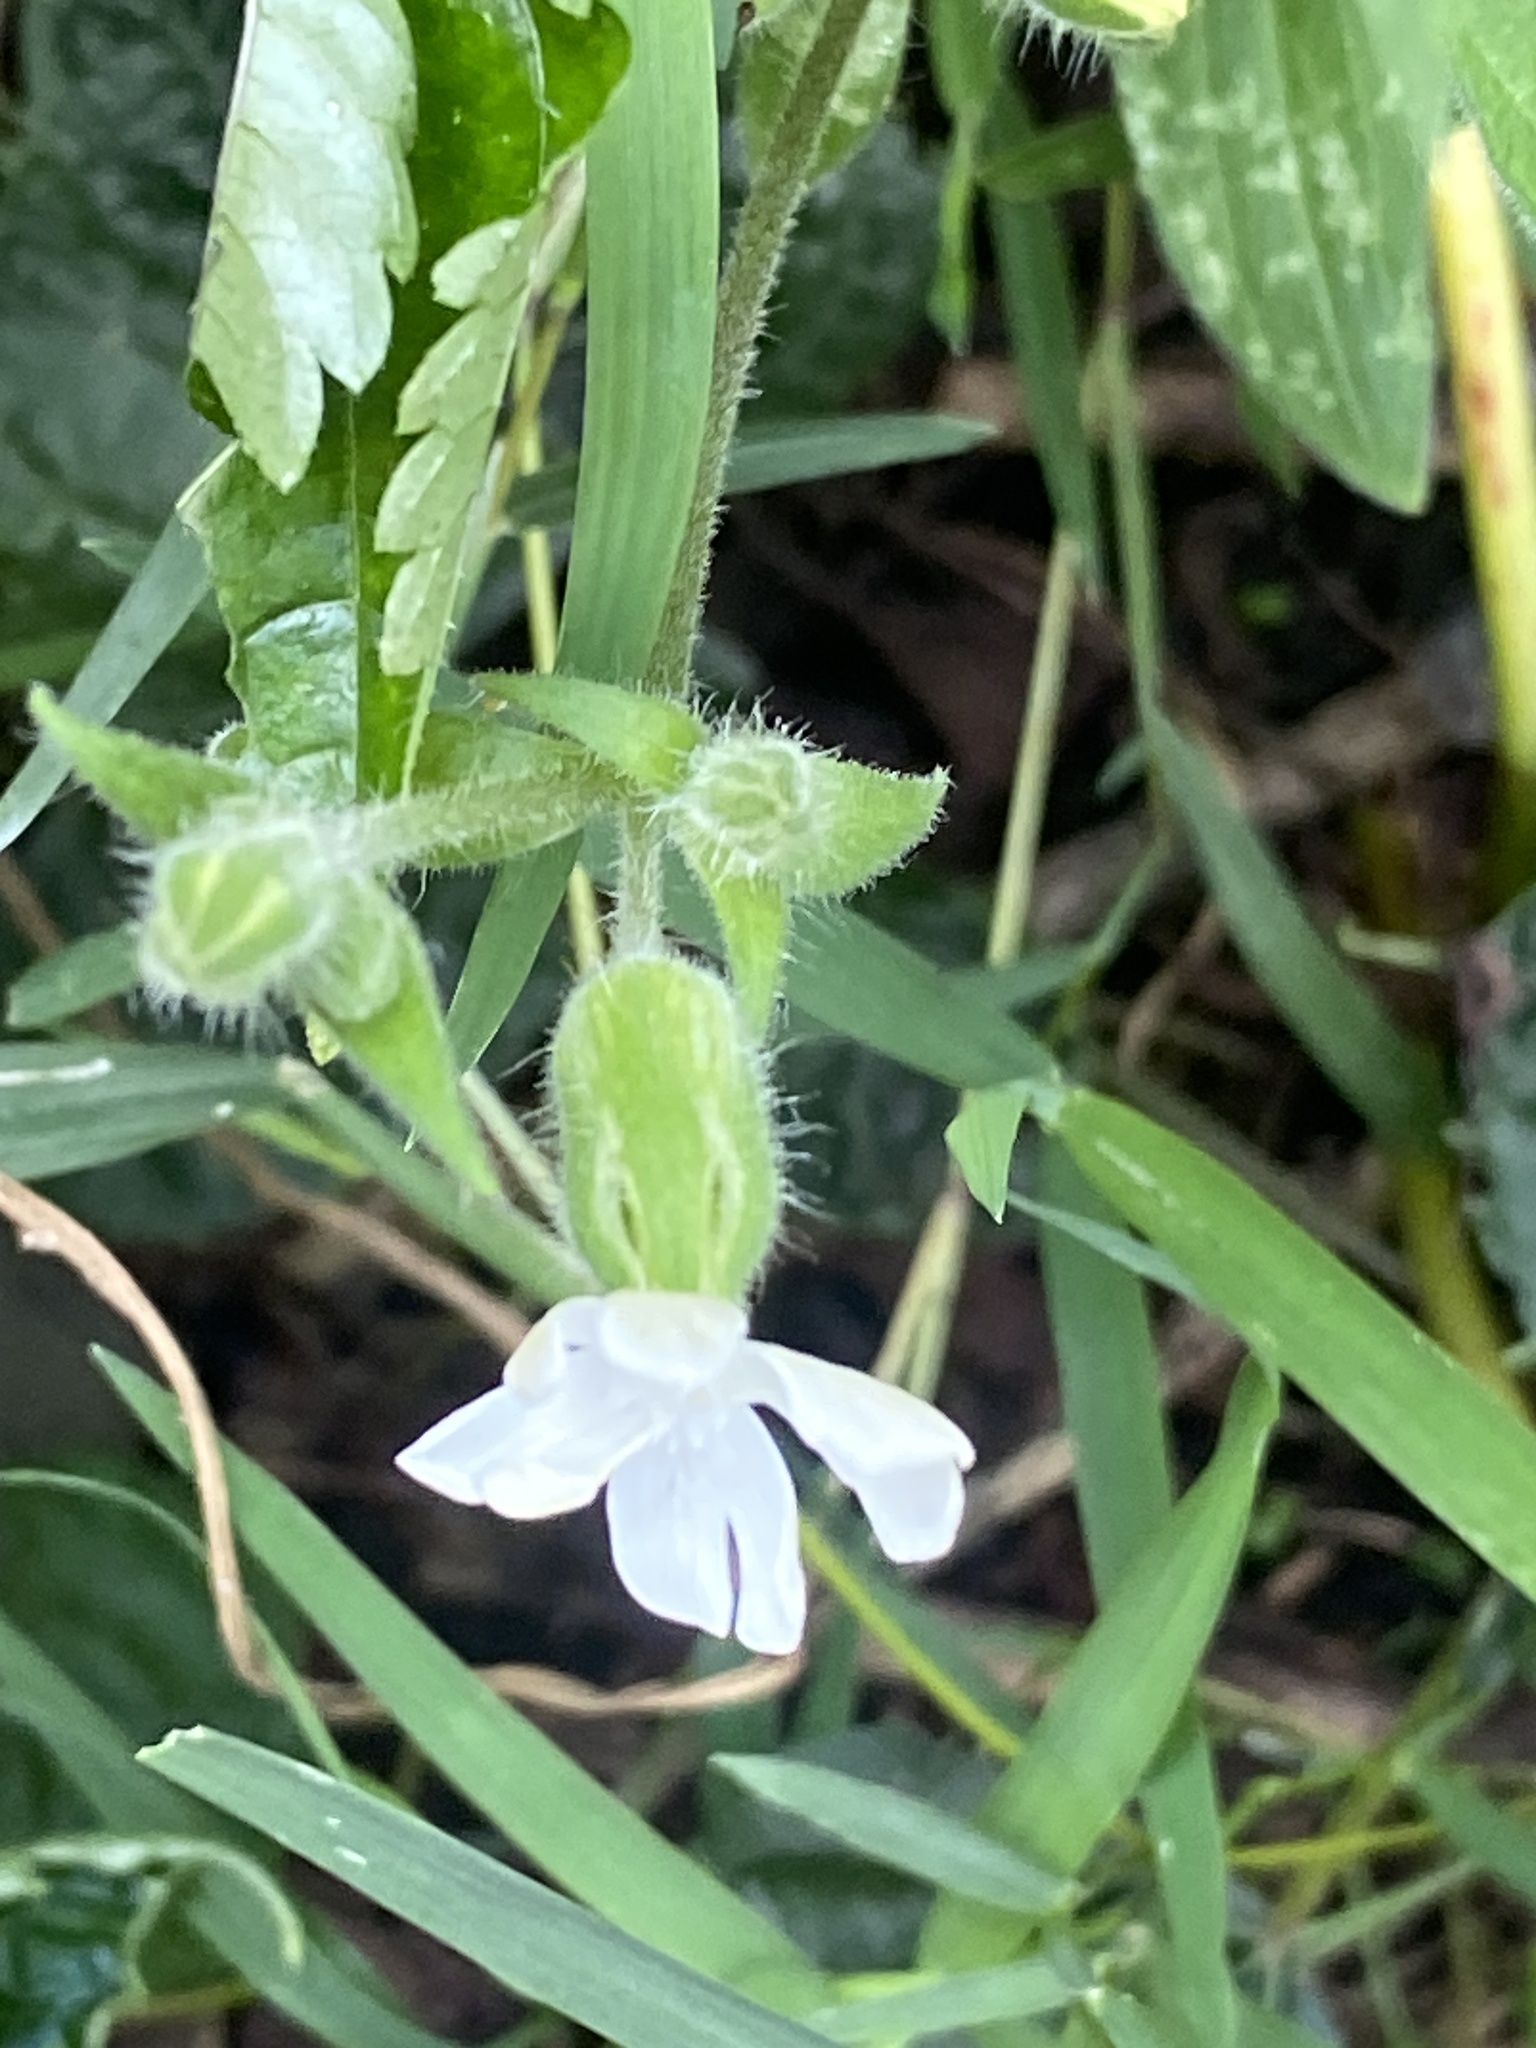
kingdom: Plantae
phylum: Tracheophyta
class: Magnoliopsida
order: Caryophyllales
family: Caryophyllaceae
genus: Silene
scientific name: Silene latifolia
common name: White campion
